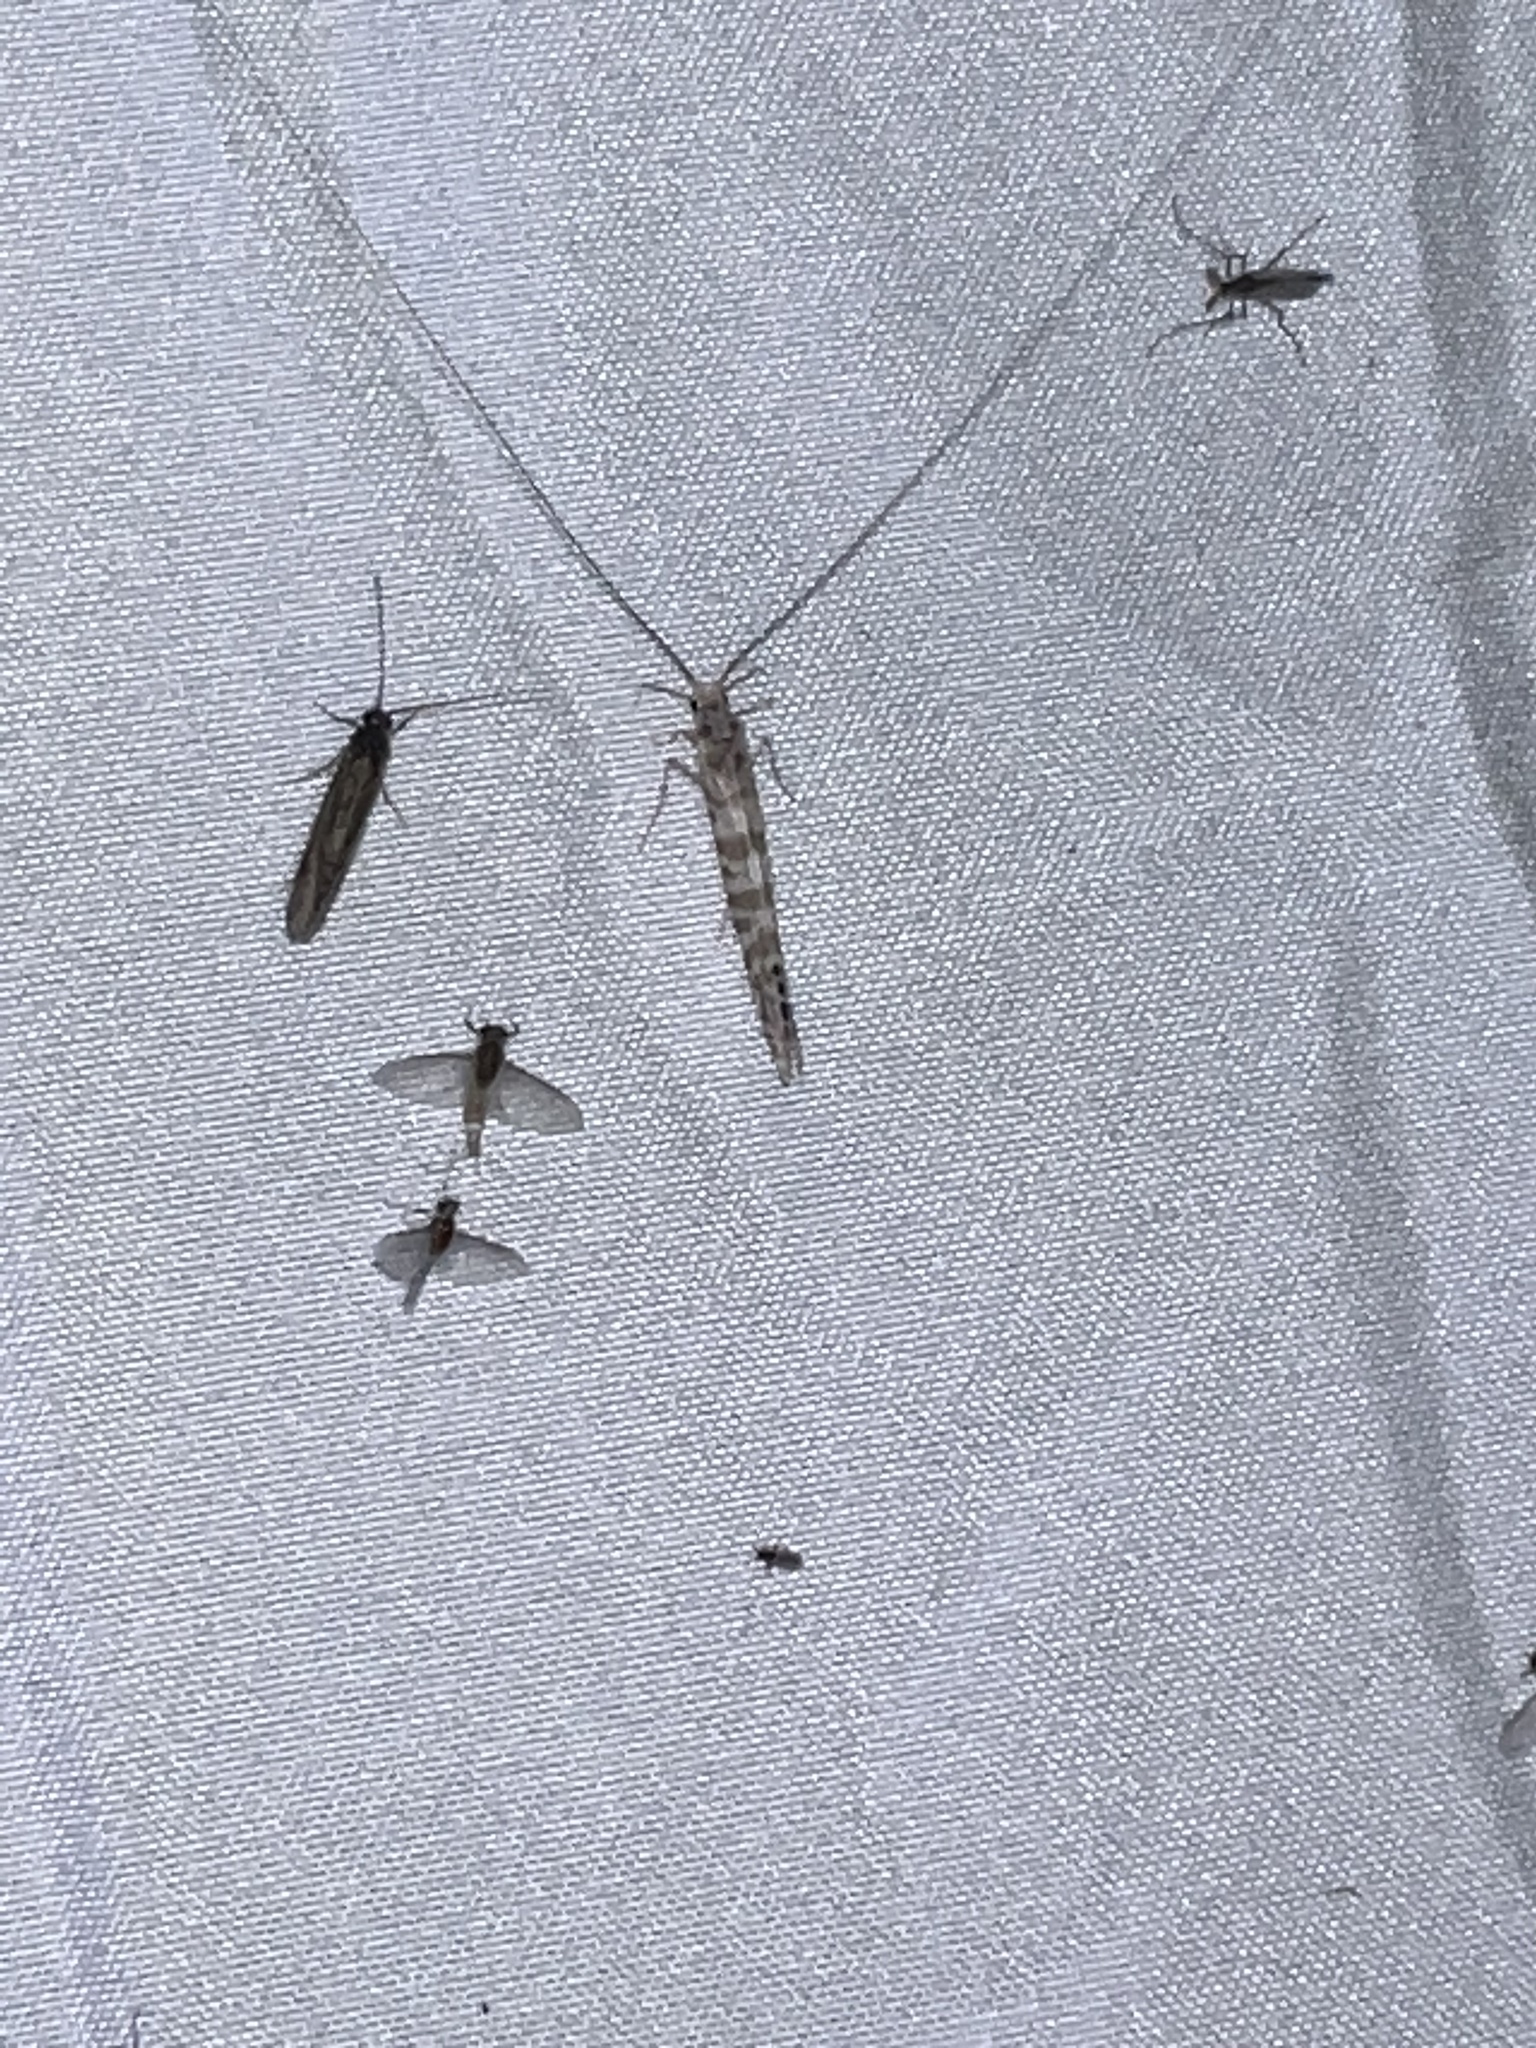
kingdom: Animalia
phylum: Arthropoda
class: Insecta
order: Trichoptera
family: Leptoceridae
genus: Nectopsyche
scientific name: Nectopsyche exquisita
